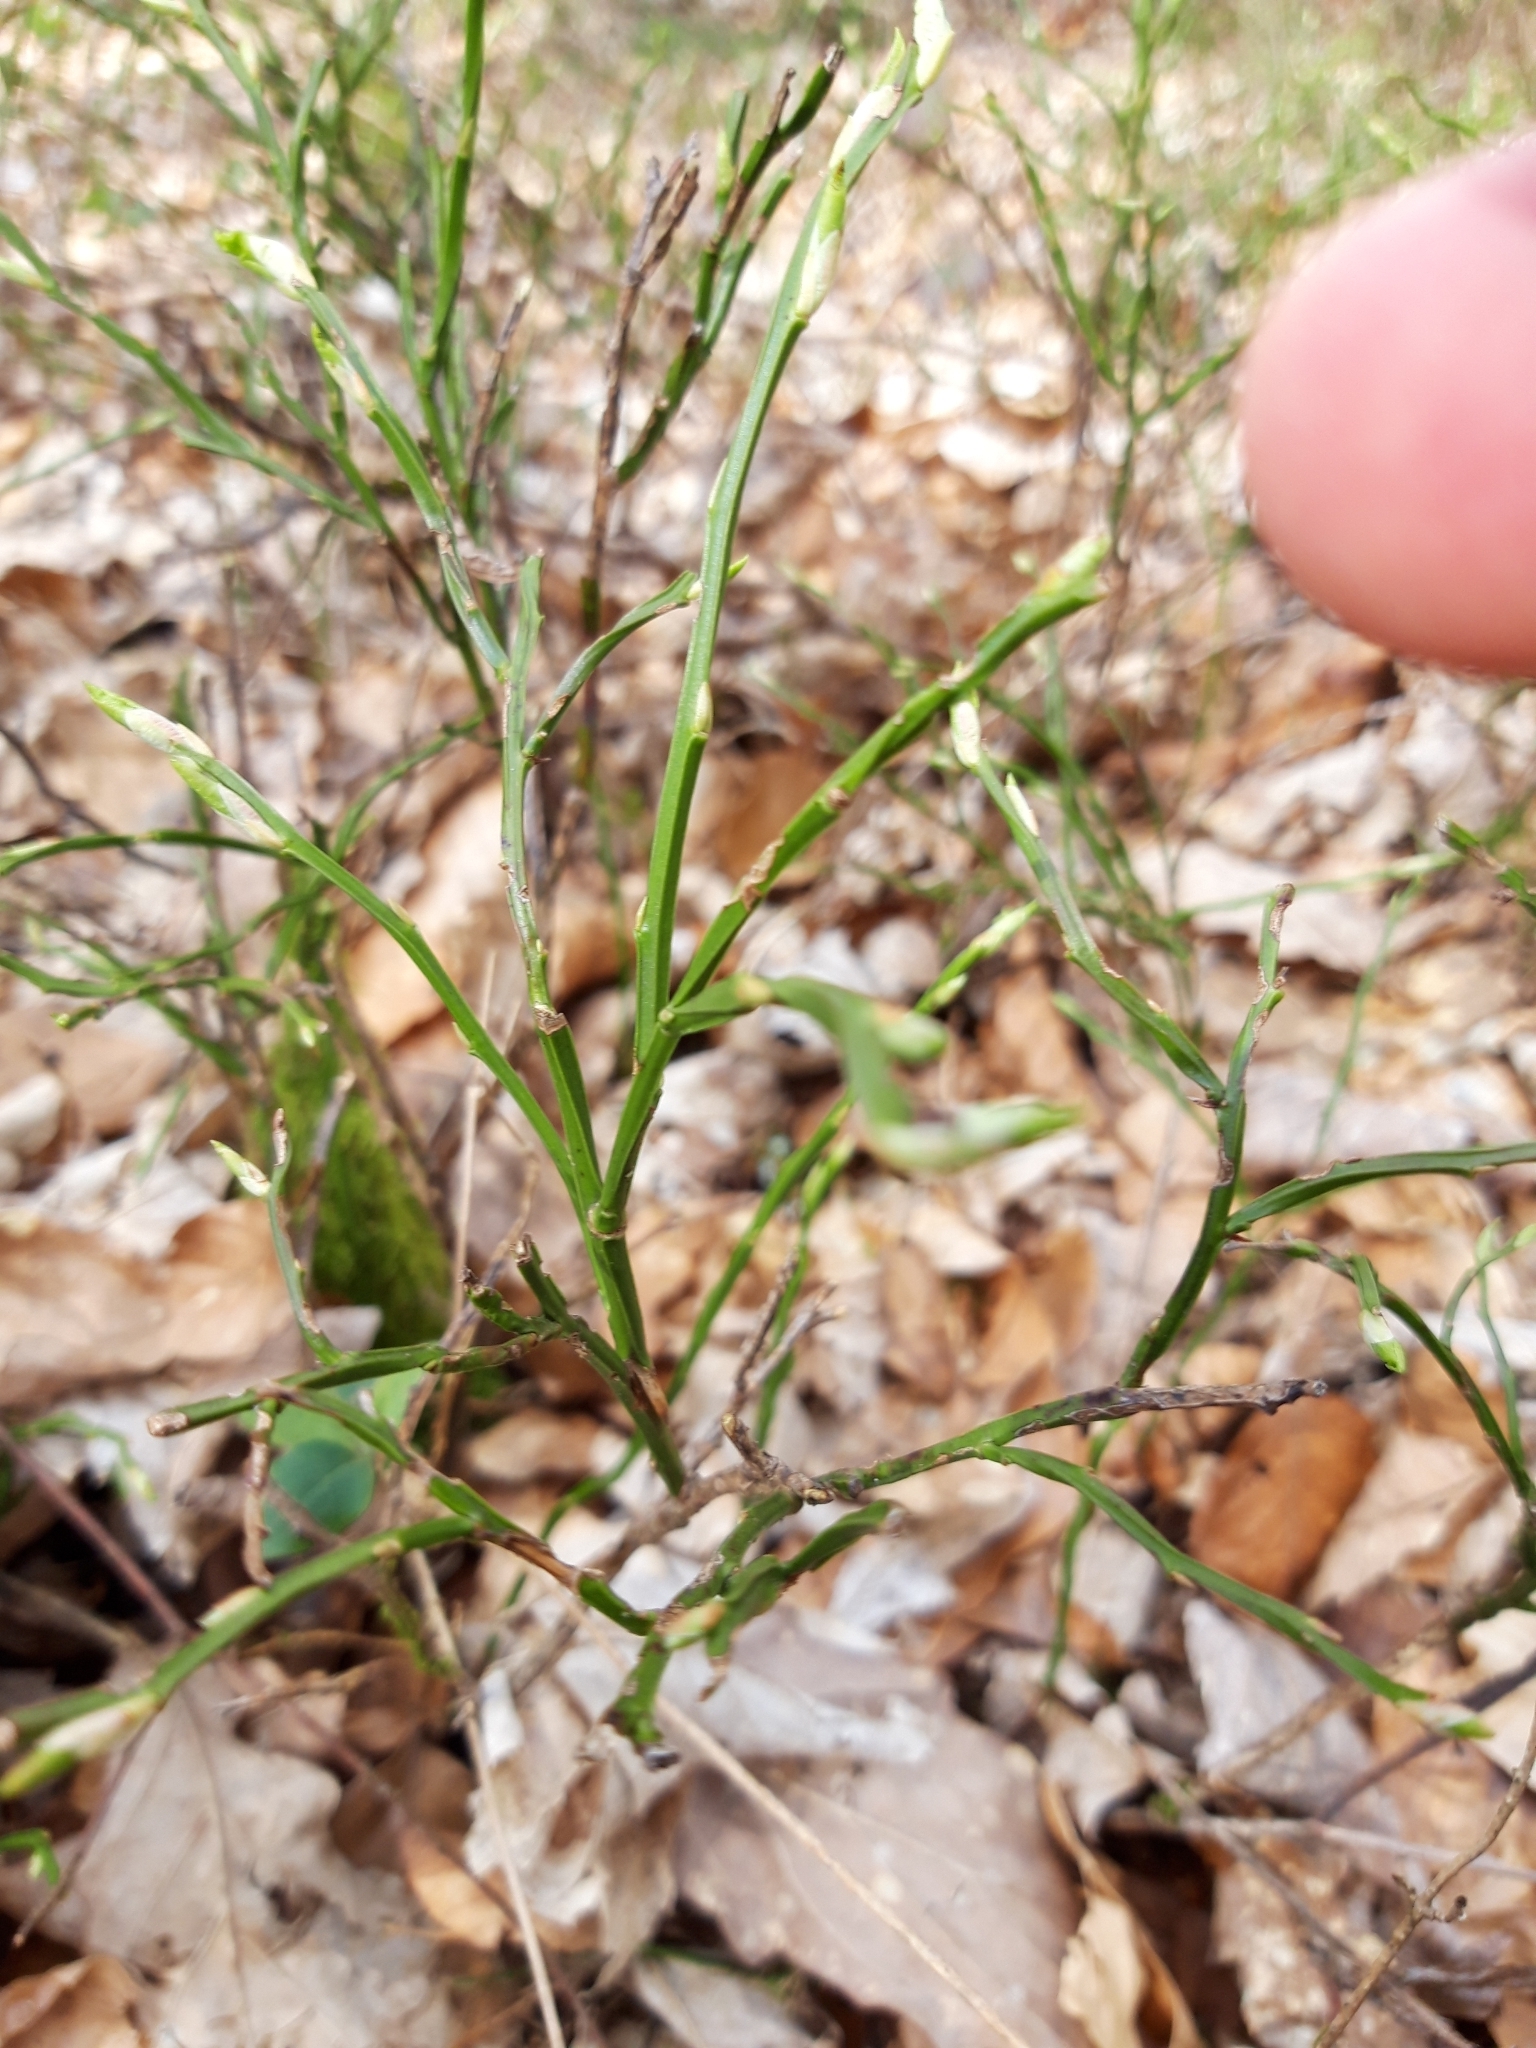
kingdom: Plantae
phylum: Tracheophyta
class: Magnoliopsida
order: Ericales
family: Ericaceae
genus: Vaccinium
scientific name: Vaccinium myrtillus
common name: Bilberry
